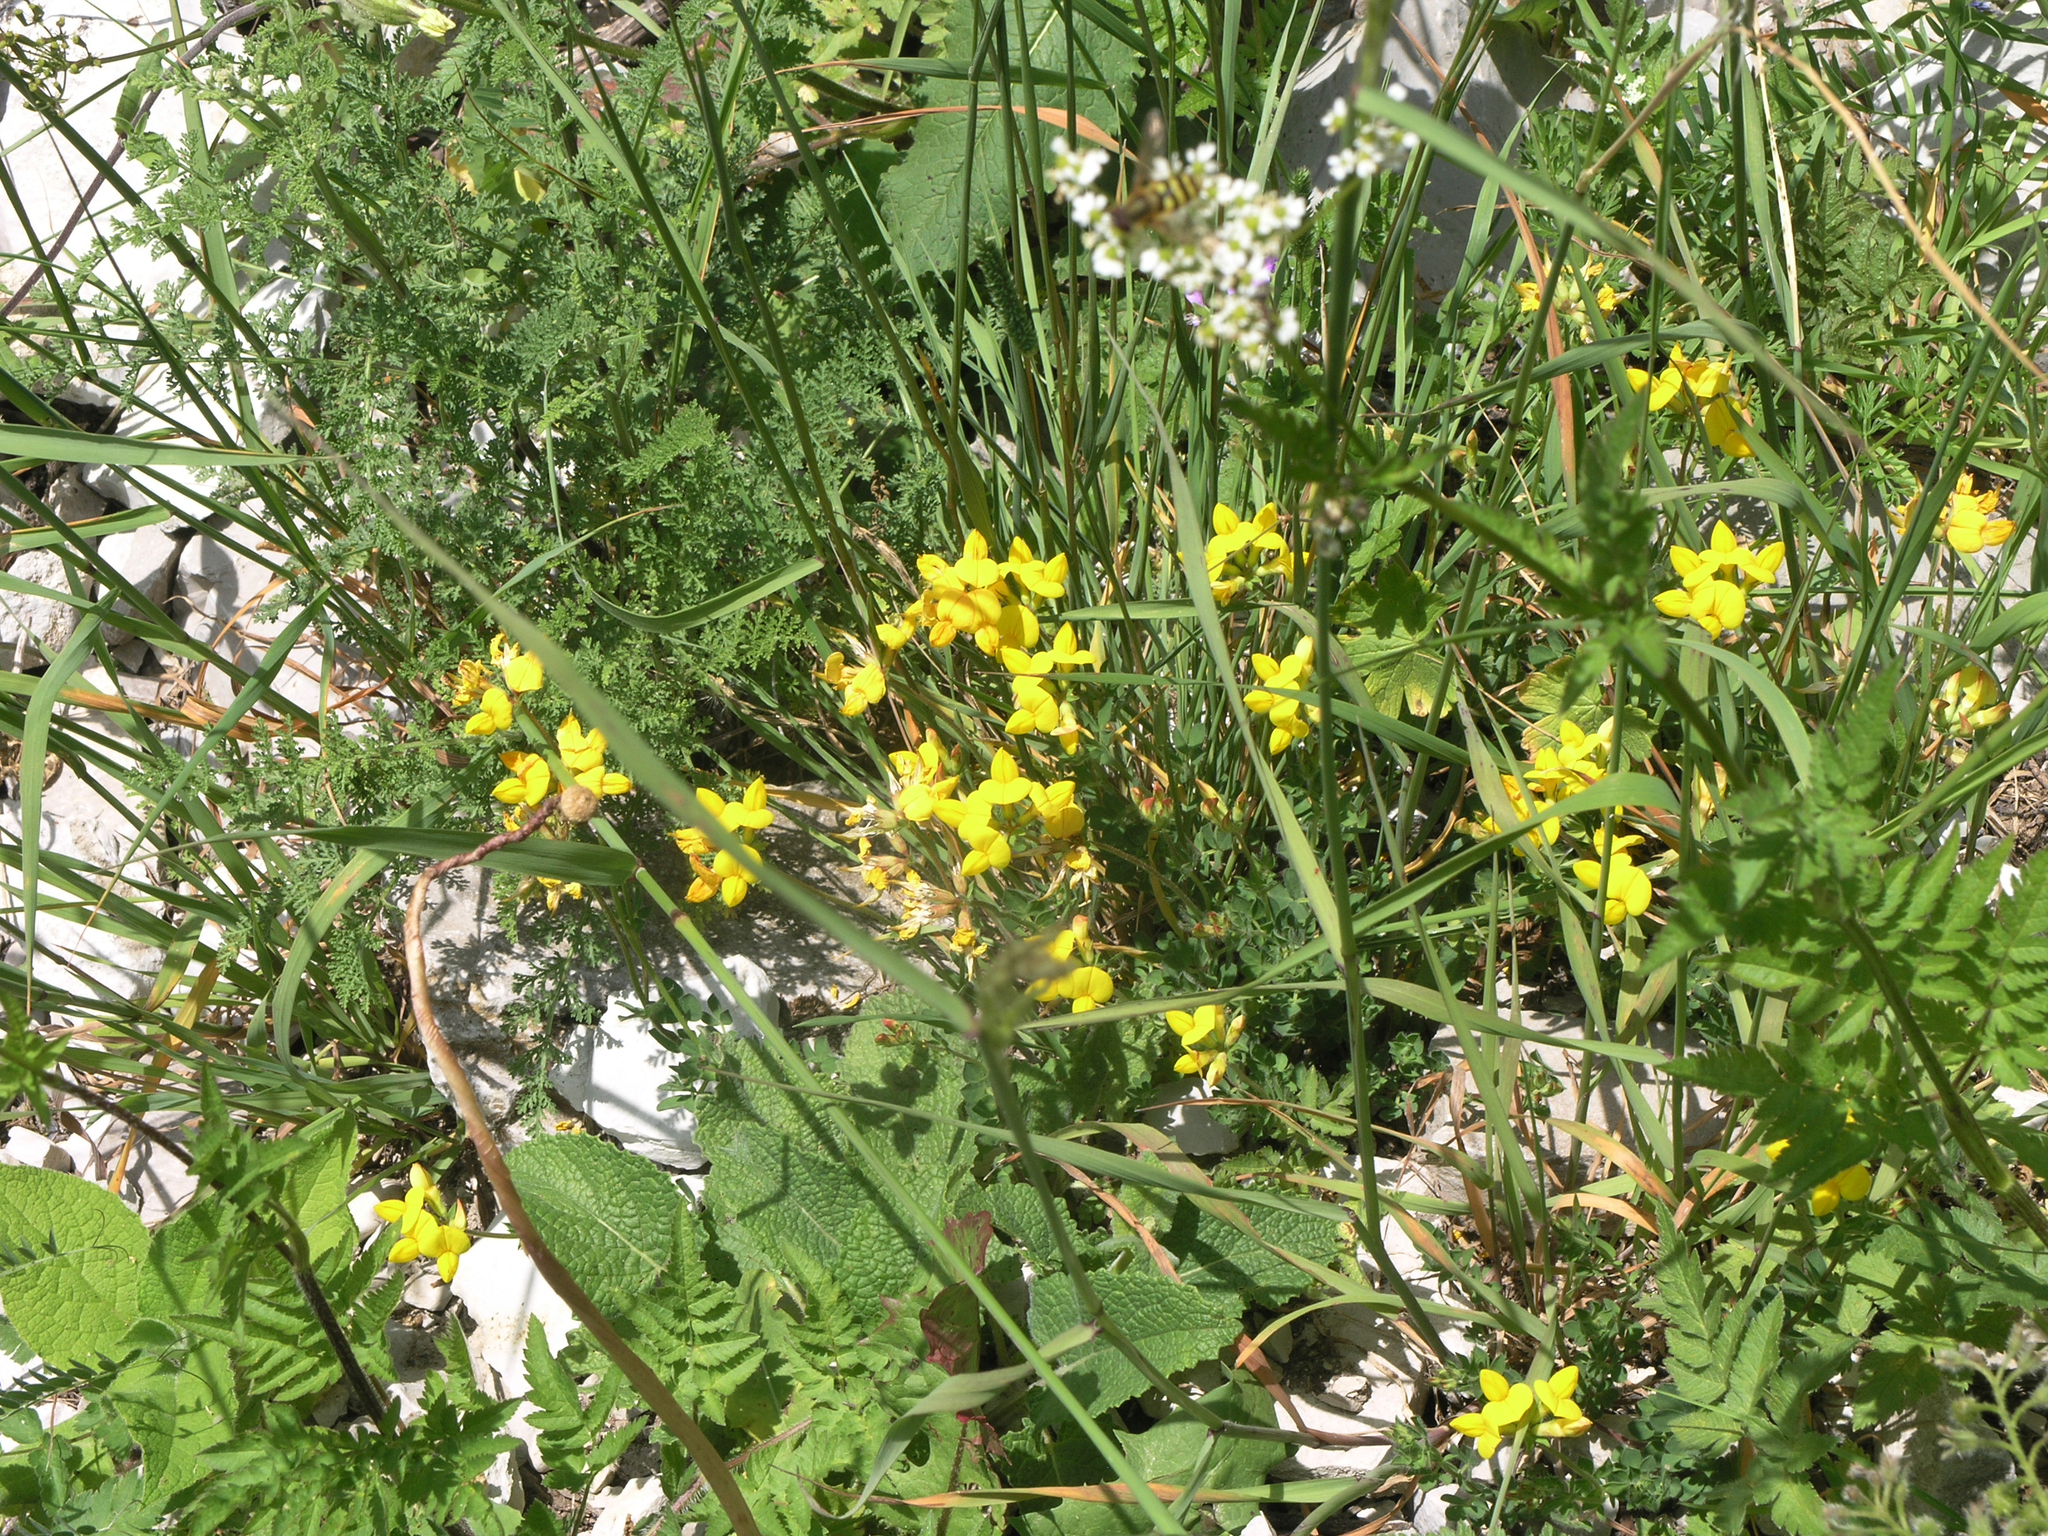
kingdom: Plantae
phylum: Tracheophyta
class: Magnoliopsida
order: Fabales
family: Fabaceae
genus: Lotus
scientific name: Lotus corniculatus
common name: Common bird's-foot-trefoil
